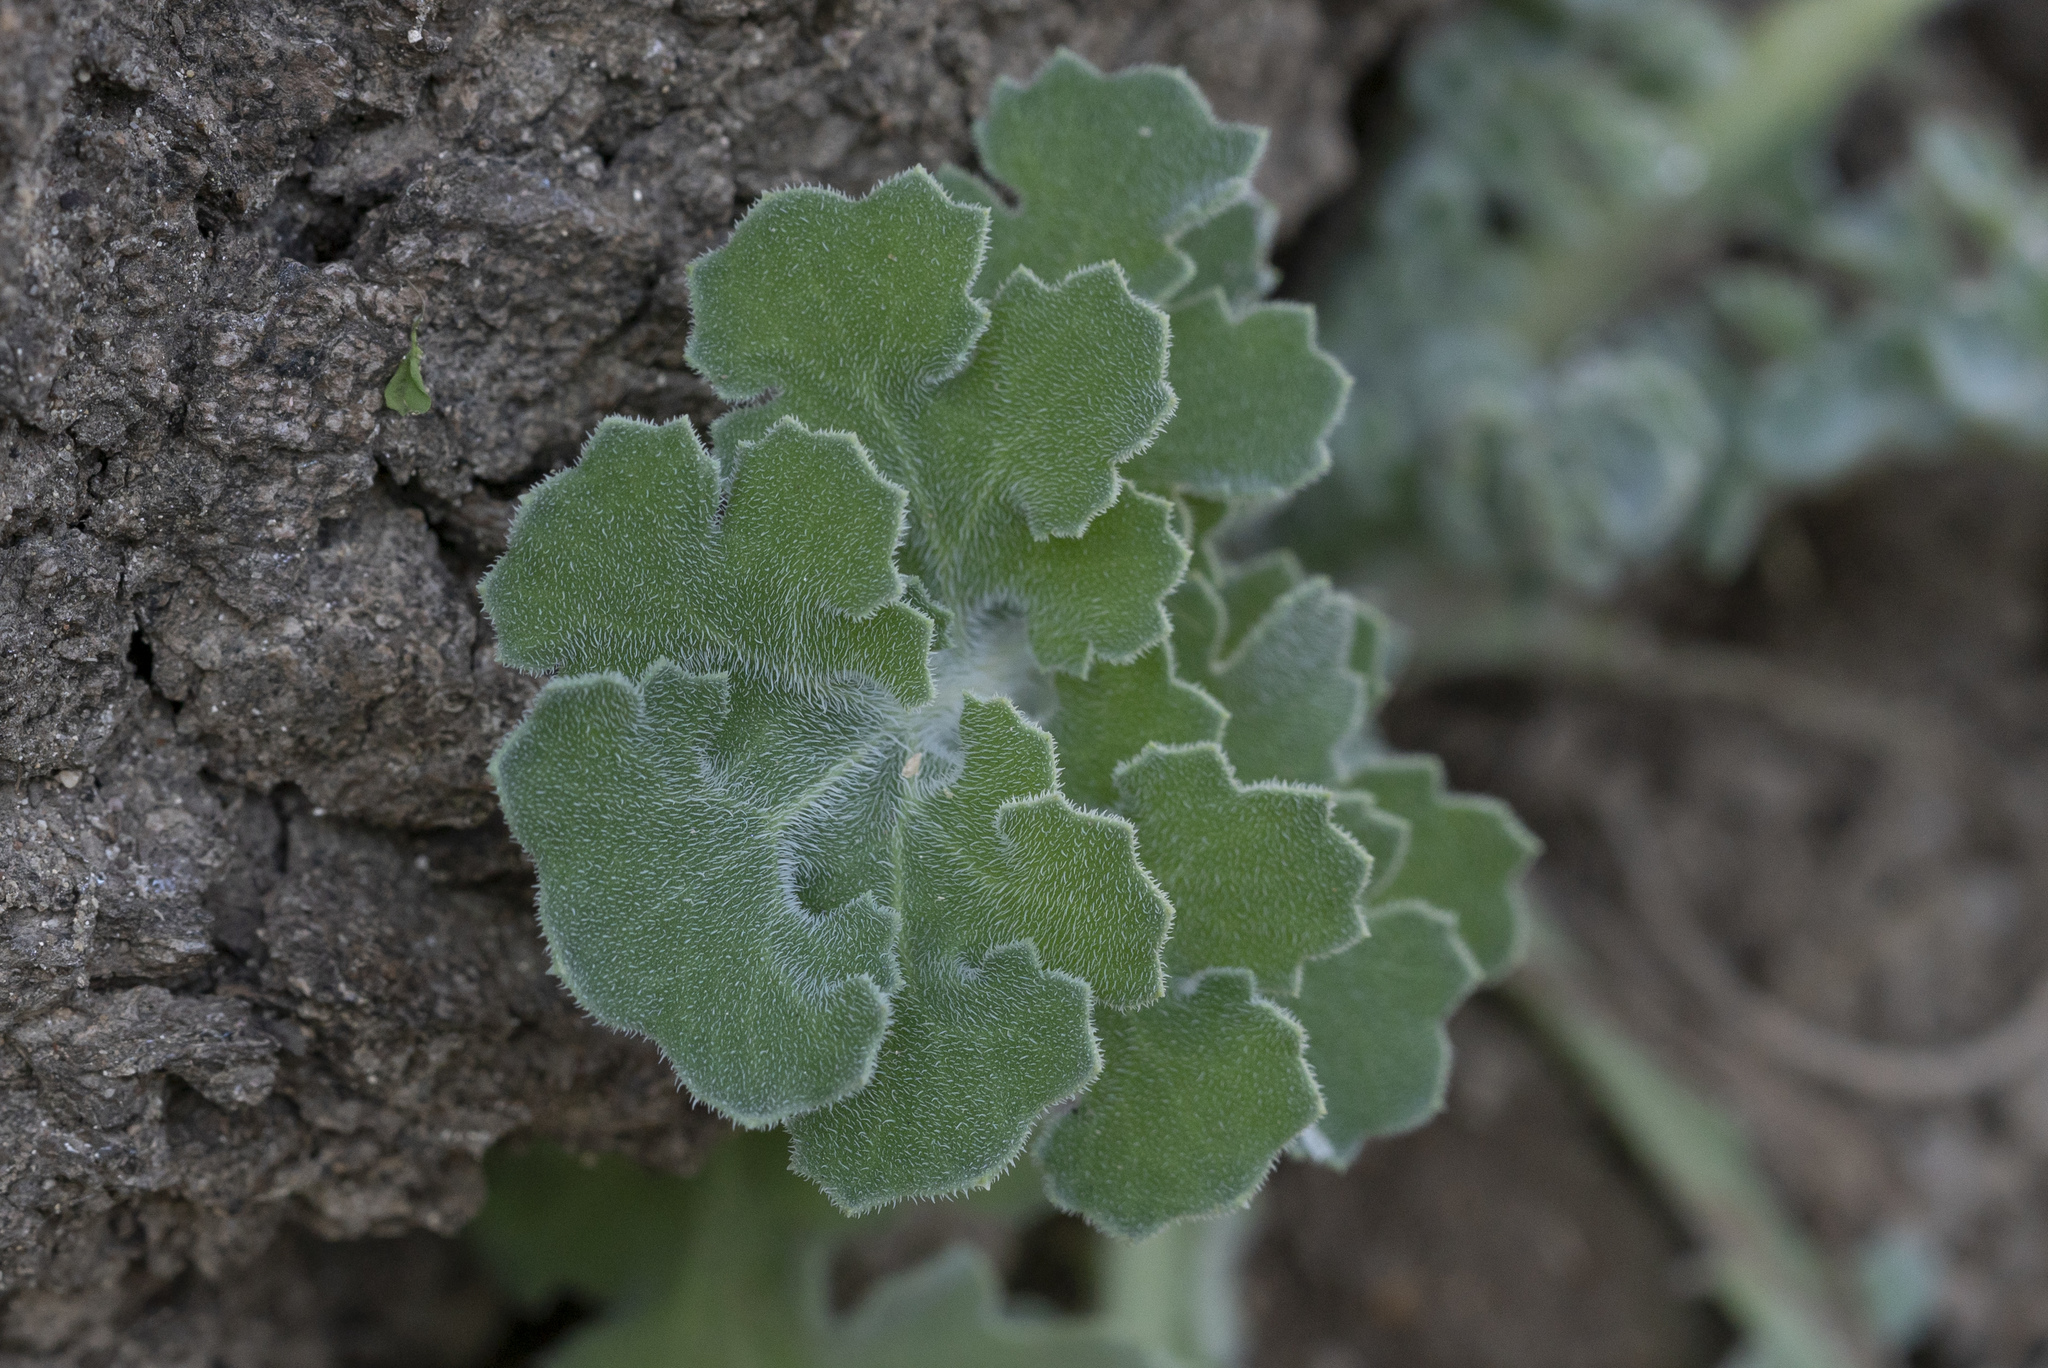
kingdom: Plantae
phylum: Tracheophyta
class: Magnoliopsida
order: Ranunculales
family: Papaveraceae
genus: Glaucium
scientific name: Glaucium flavum
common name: Yellow horned-poppy
